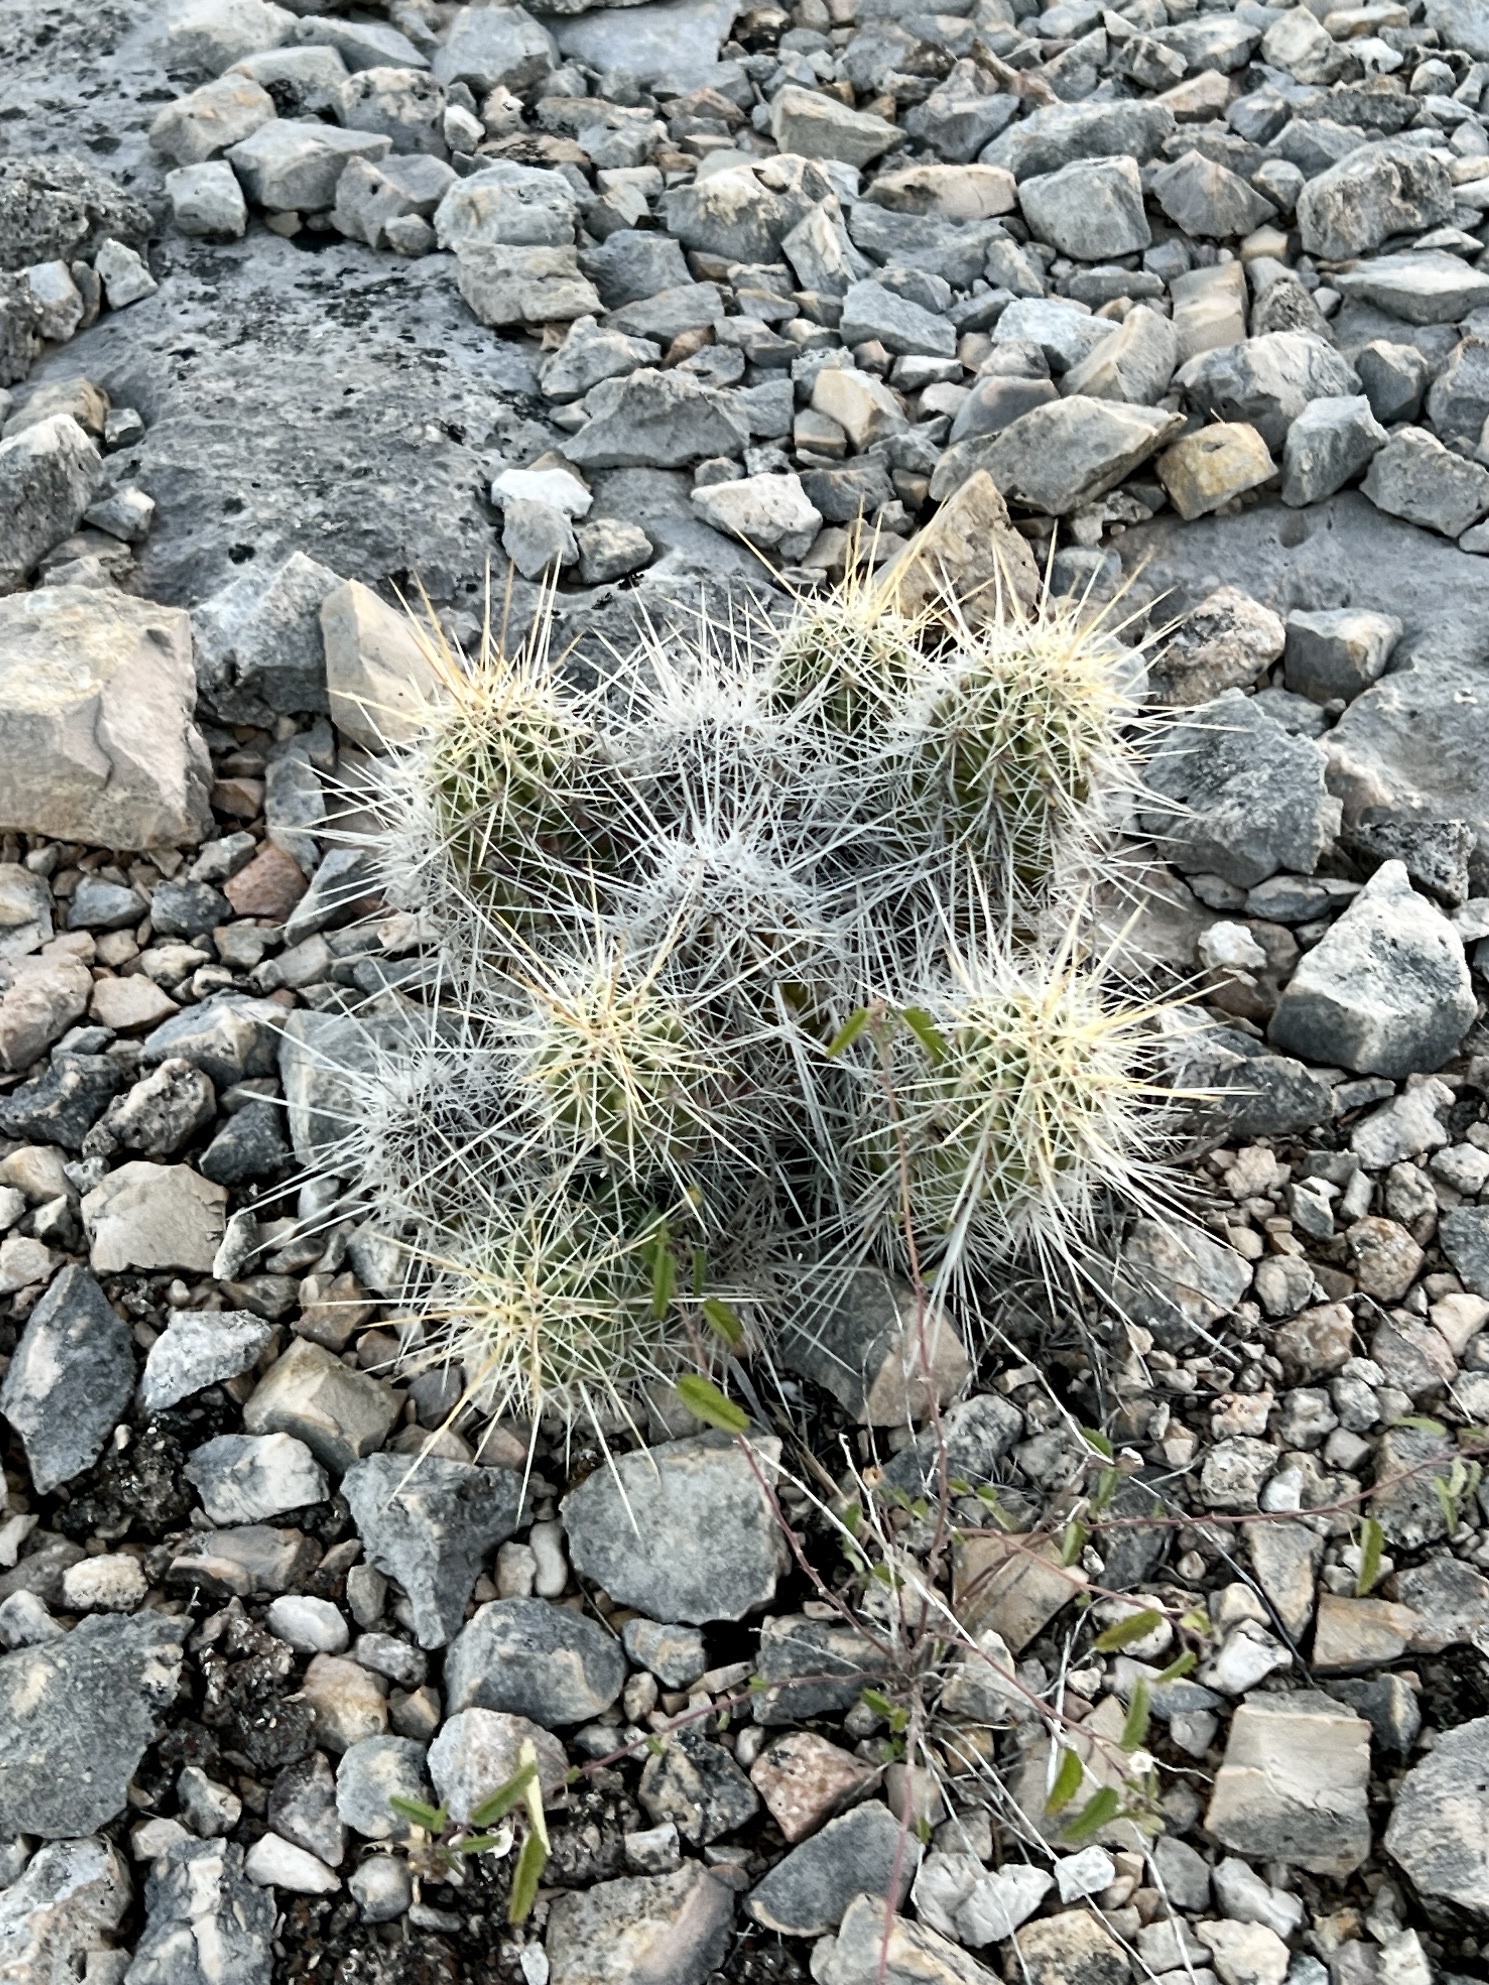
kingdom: Plantae
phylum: Tracheophyta
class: Magnoliopsida
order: Caryophyllales
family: Cactaceae
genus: Echinocereus
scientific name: Echinocereus enneacanthus
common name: Pitaya
